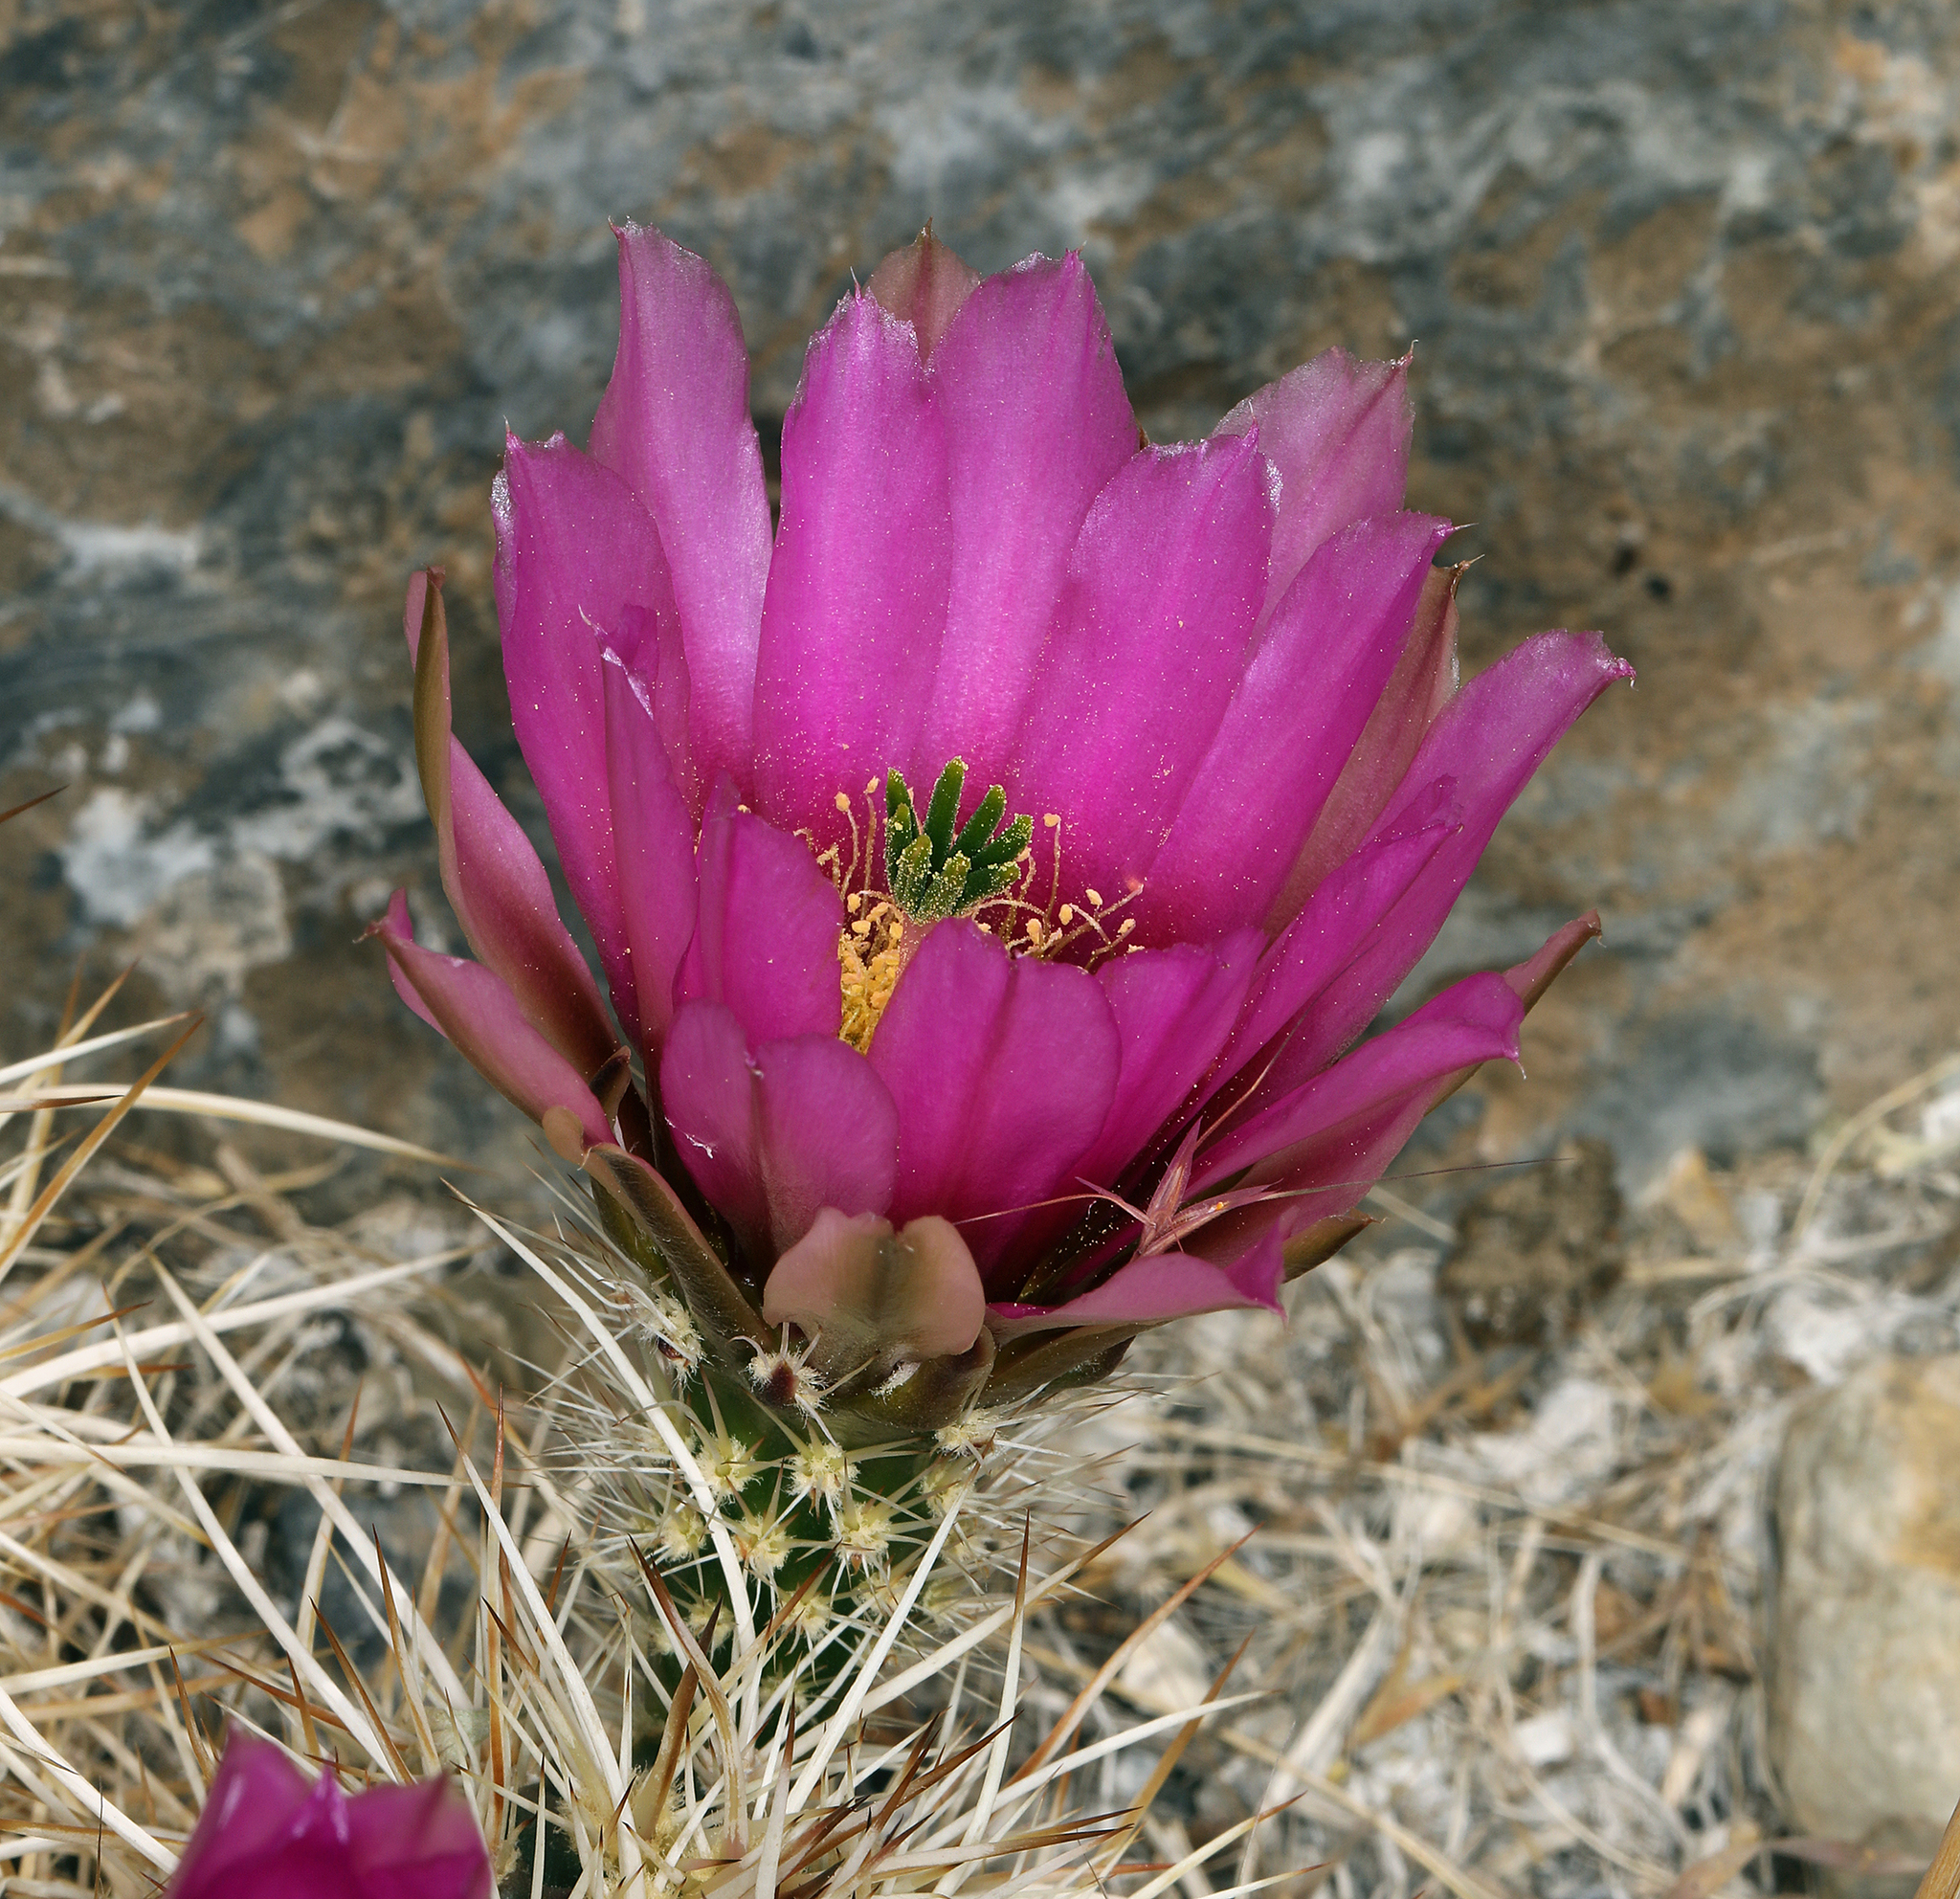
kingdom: Plantae
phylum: Tracheophyta
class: Magnoliopsida
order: Caryophyllales
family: Cactaceae
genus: Echinocereus
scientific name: Echinocereus engelmannii
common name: Engelmann's hedgehog cactus
